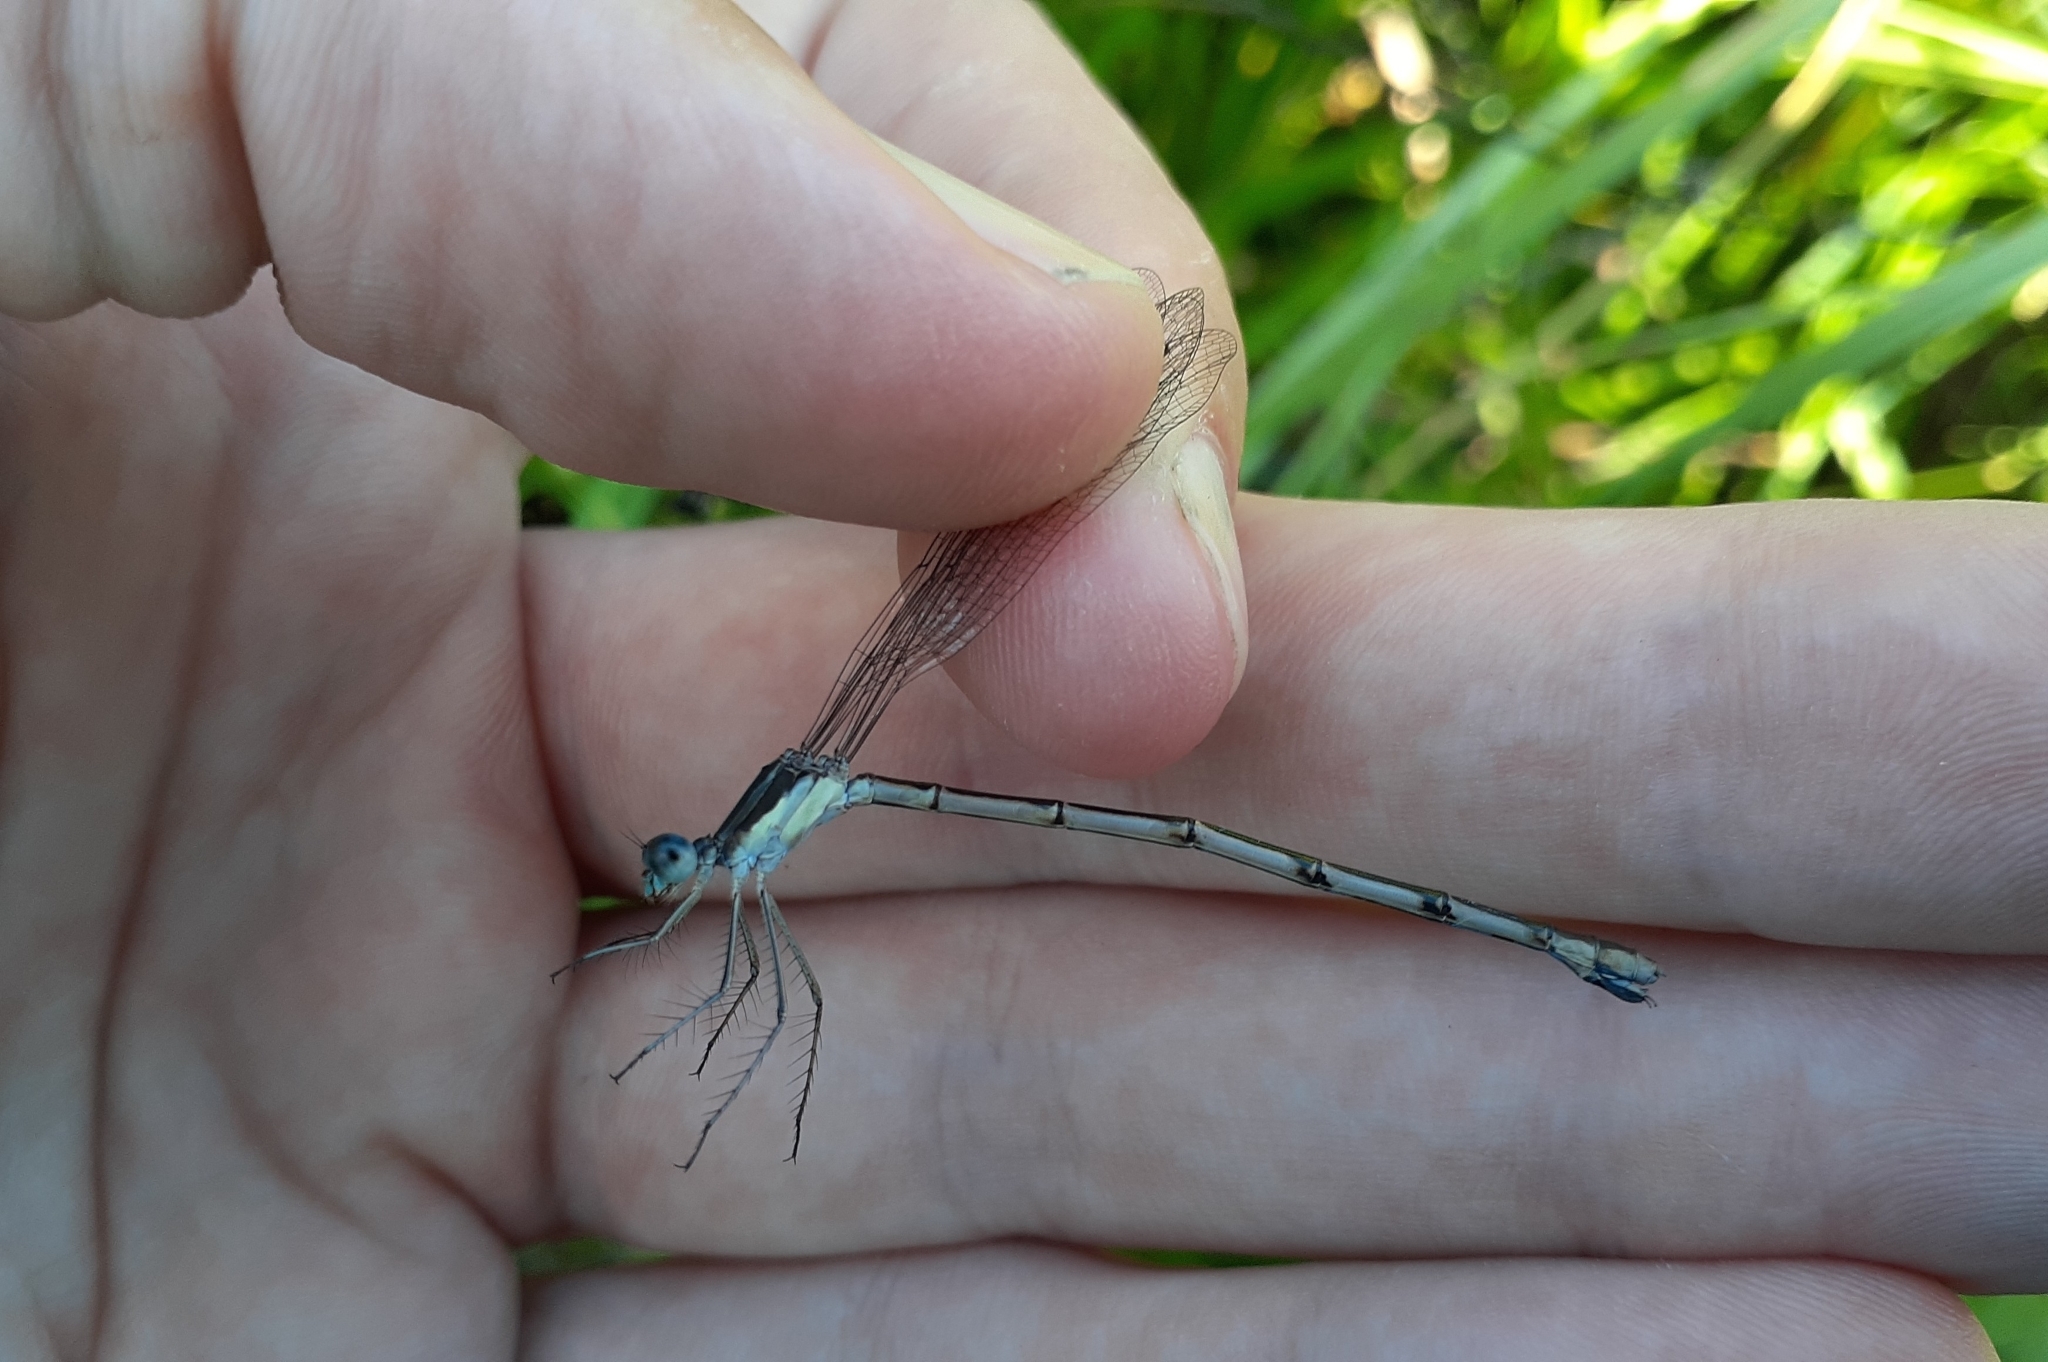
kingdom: Animalia
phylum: Arthropoda
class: Insecta
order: Odonata
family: Lestidae
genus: Lestes
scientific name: Lestes rectangularis
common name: Slender spreadwing
